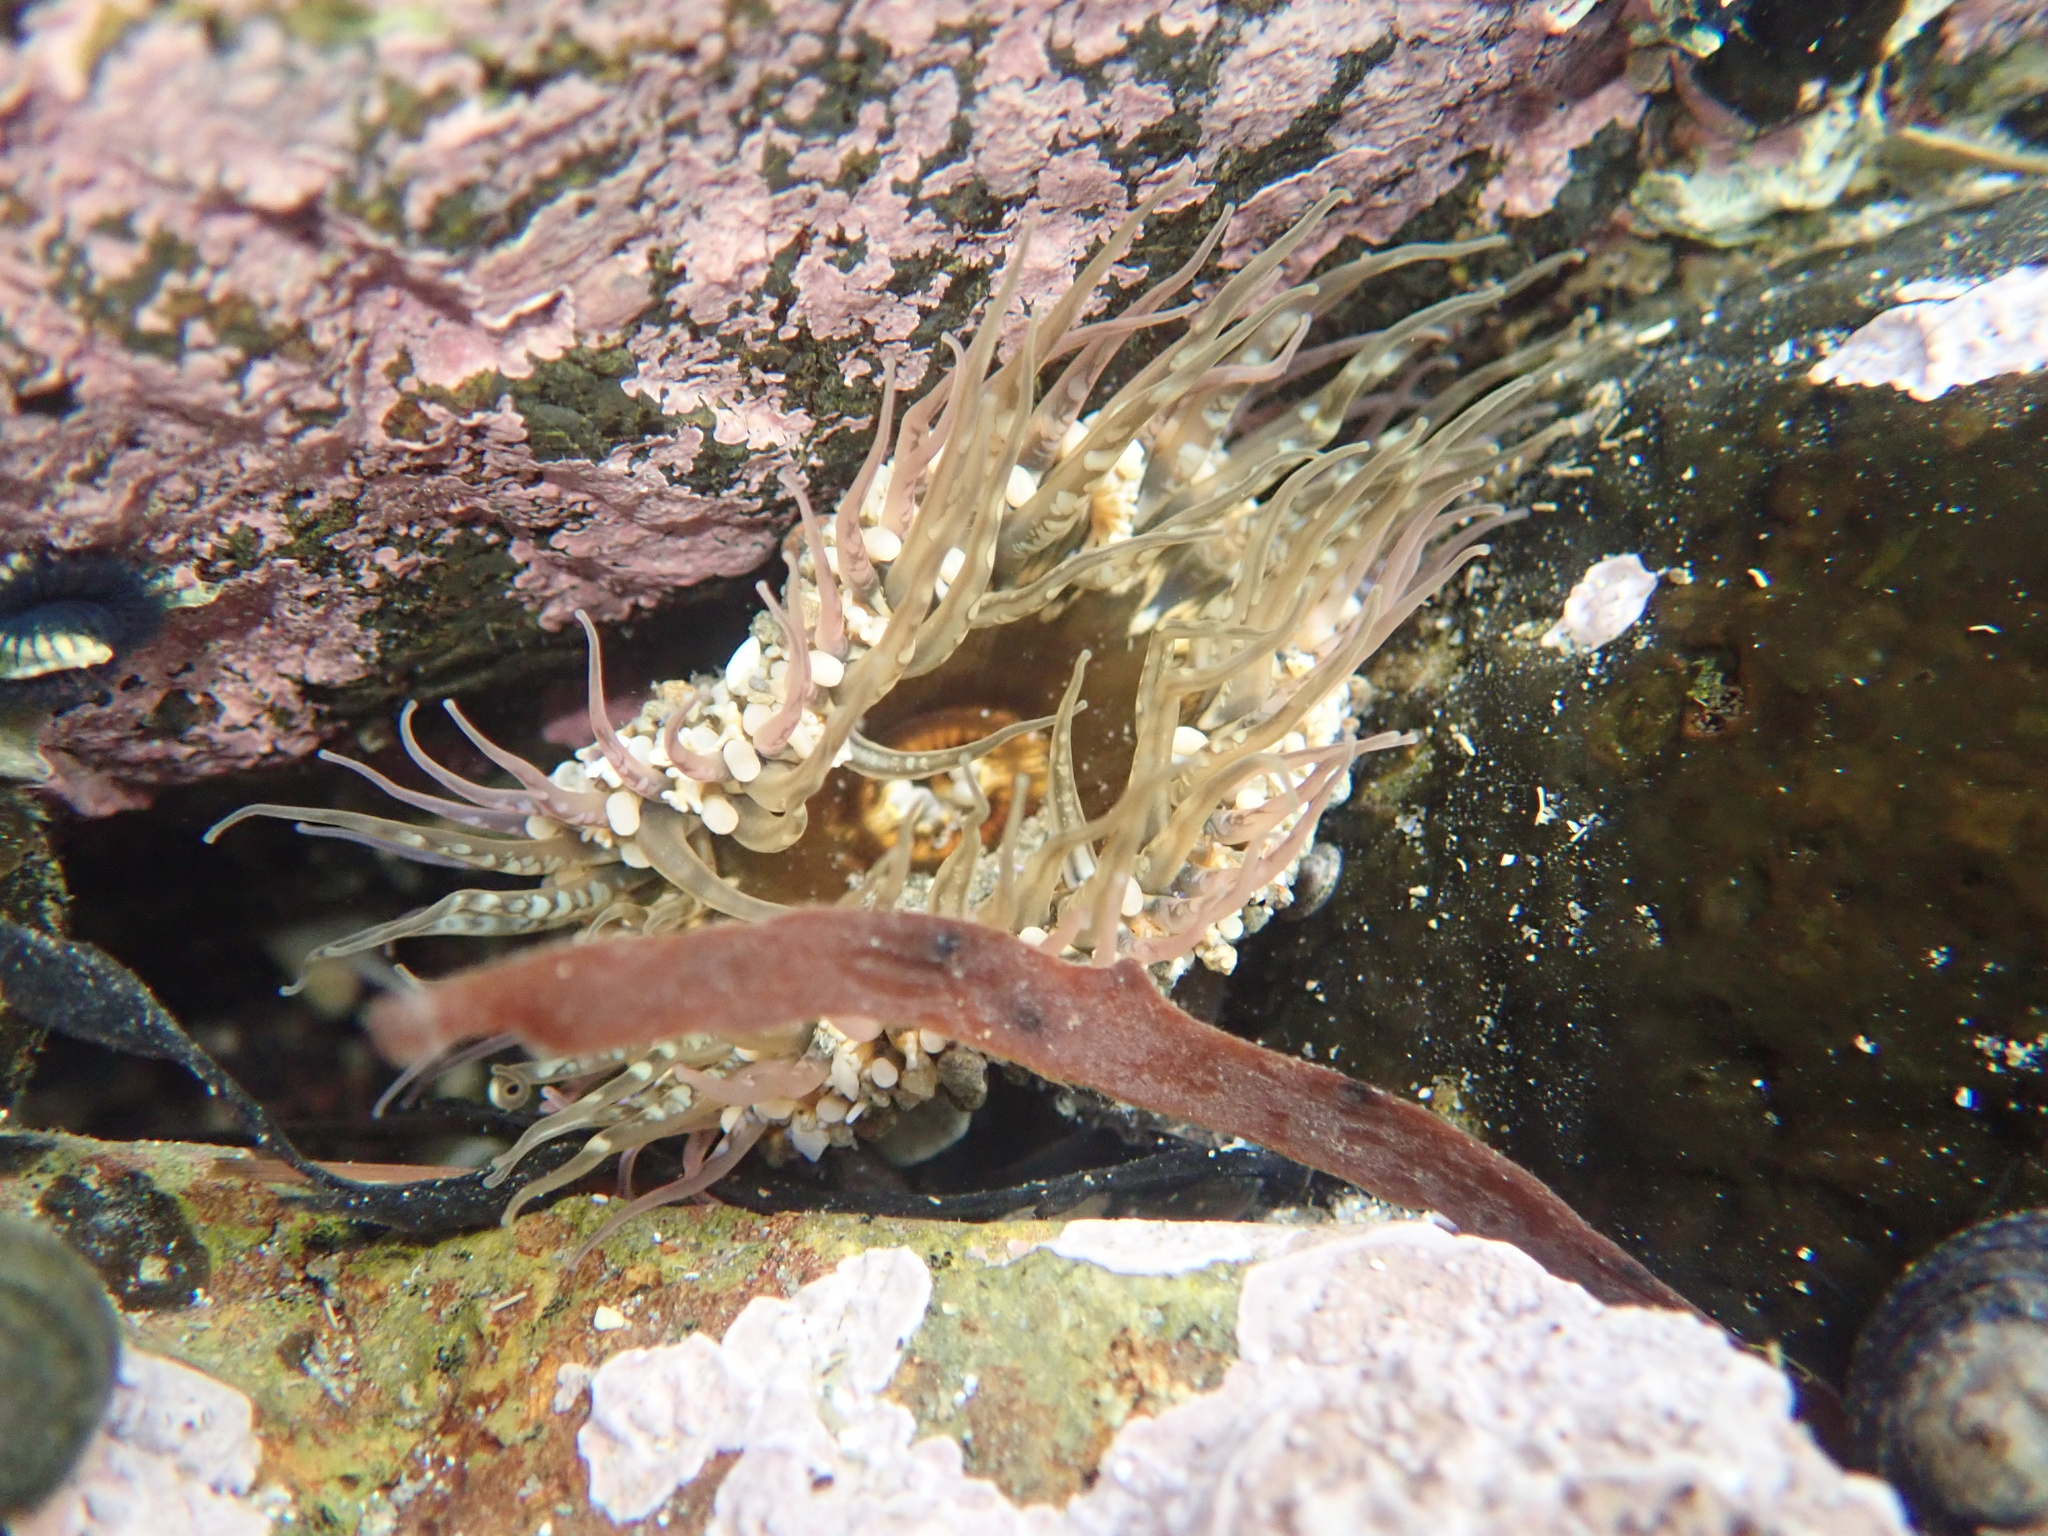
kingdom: Animalia
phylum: Cnidaria
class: Anthozoa
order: Actiniaria
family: Actiniidae
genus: Oulactis
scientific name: Oulactis muscosa
